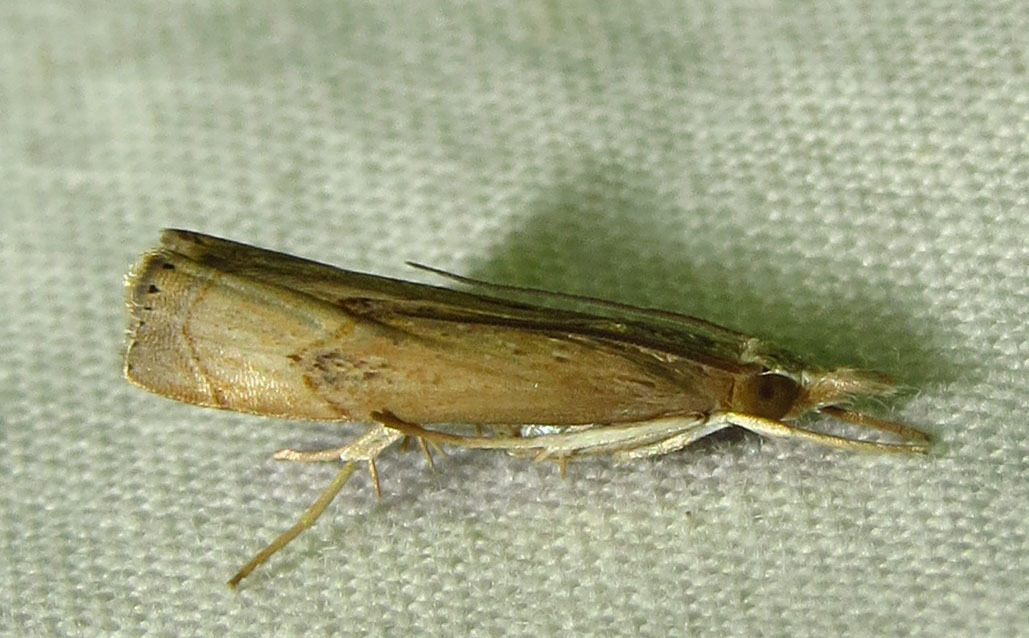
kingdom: Animalia
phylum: Arthropoda
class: Insecta
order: Lepidoptera
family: Crambidae
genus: Parapediasia
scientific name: Parapediasia teterellus
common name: Bluegrass webworm moth
